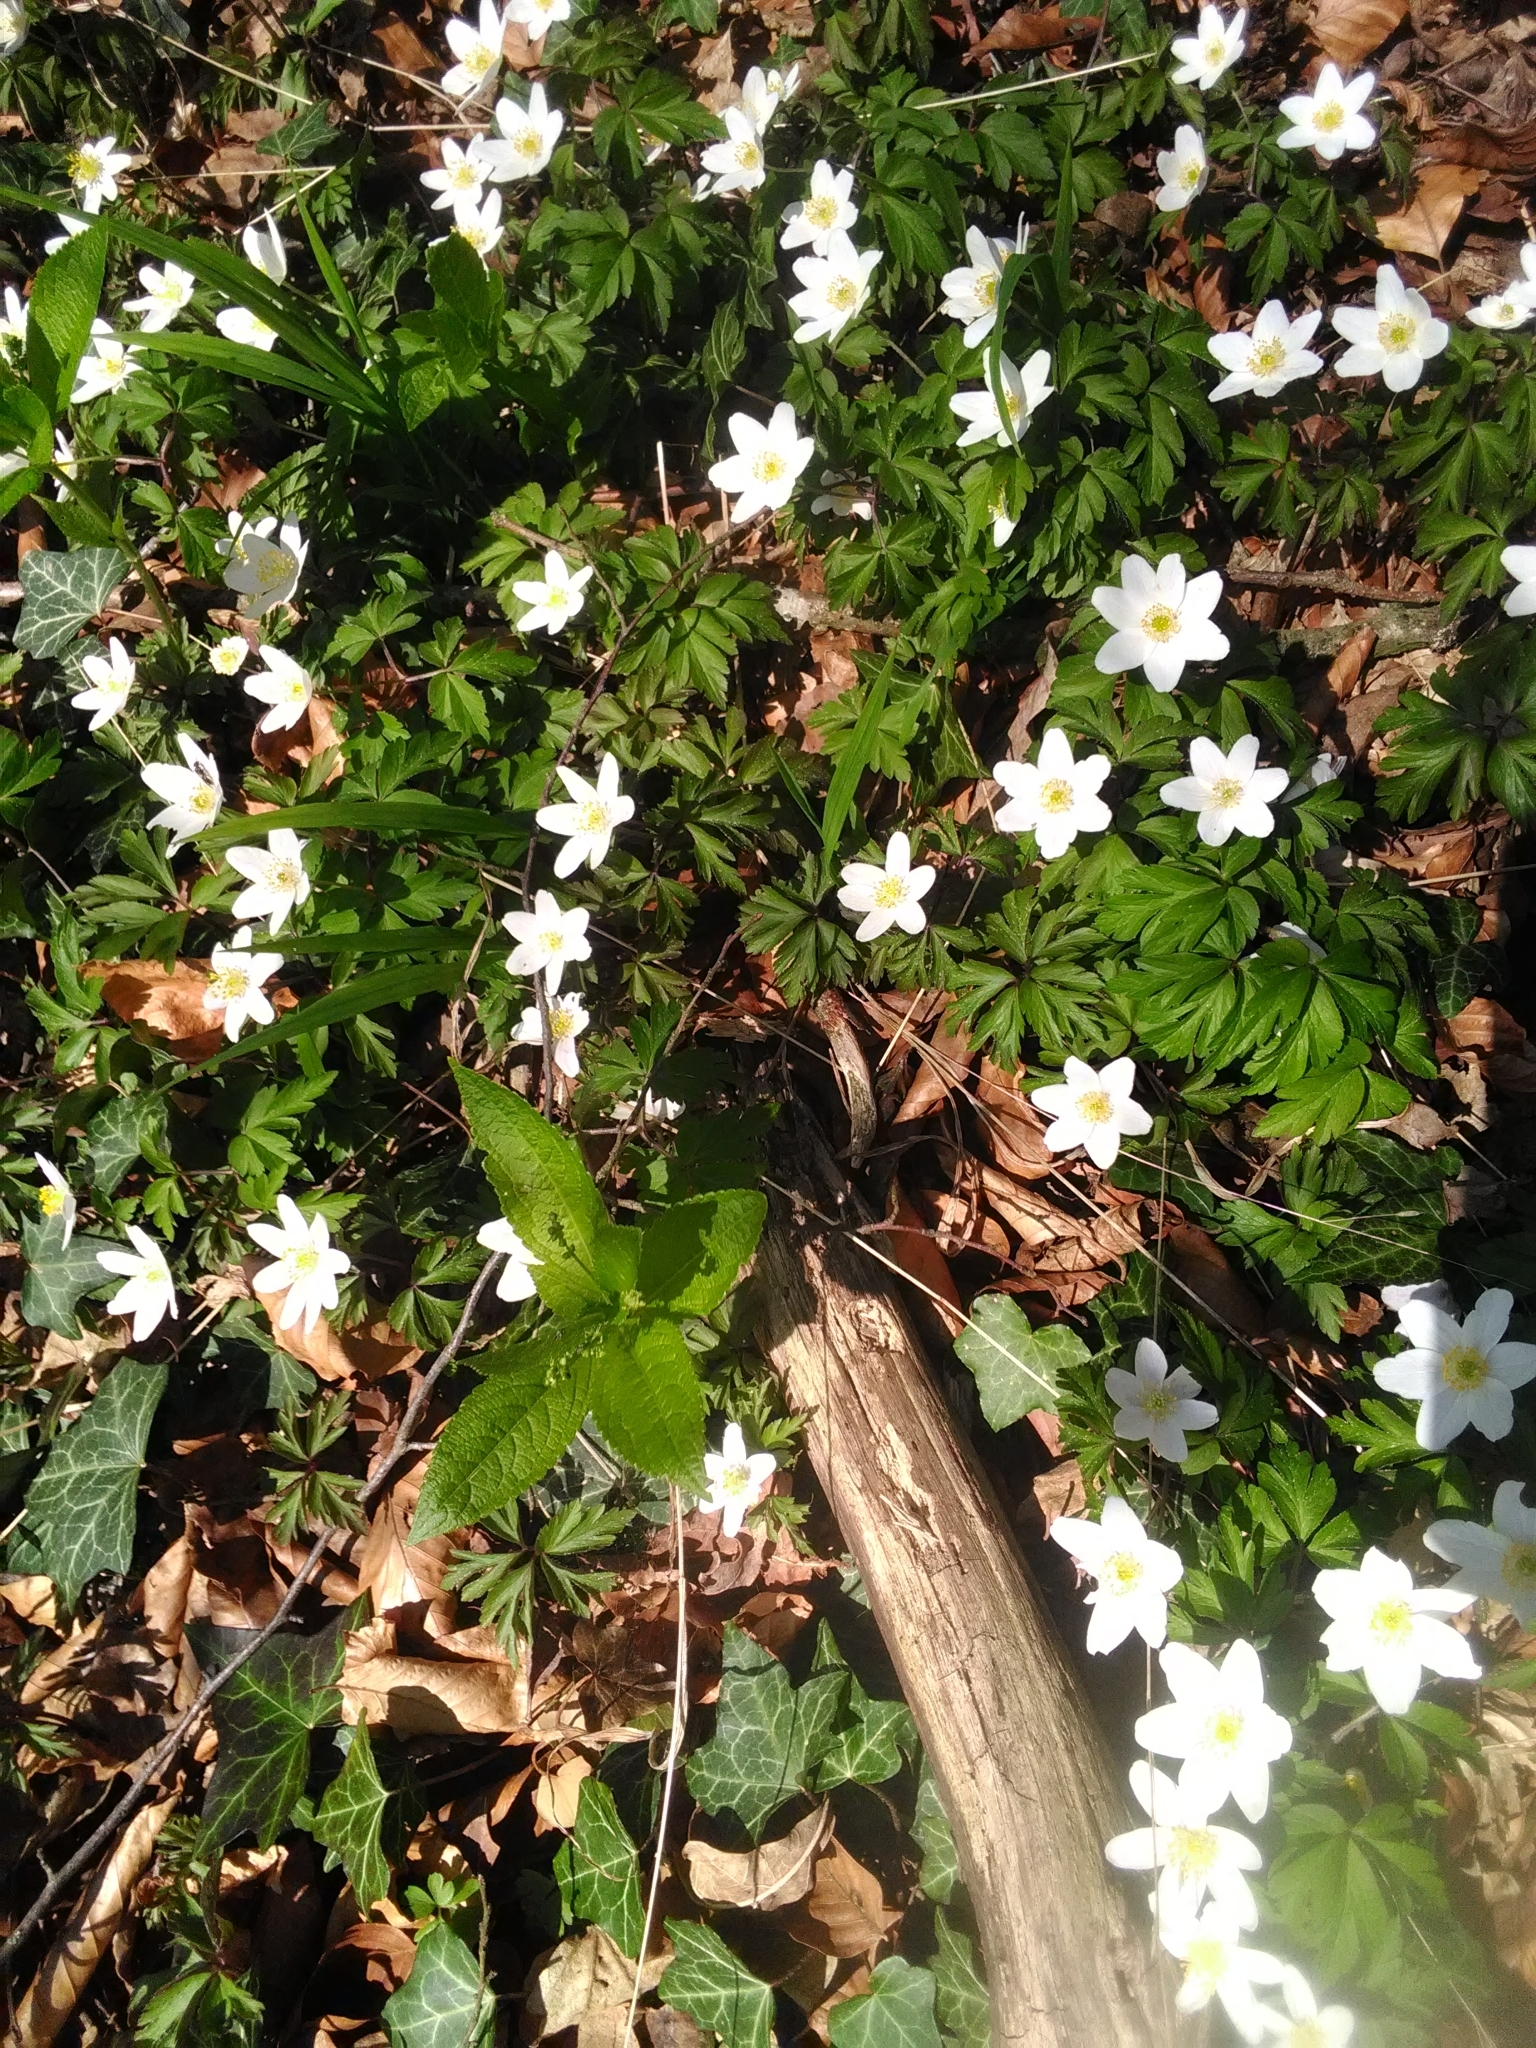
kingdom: Plantae
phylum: Tracheophyta
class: Magnoliopsida
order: Ranunculales
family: Ranunculaceae
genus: Anemone
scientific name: Anemone nemorosa
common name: Wood anemone
